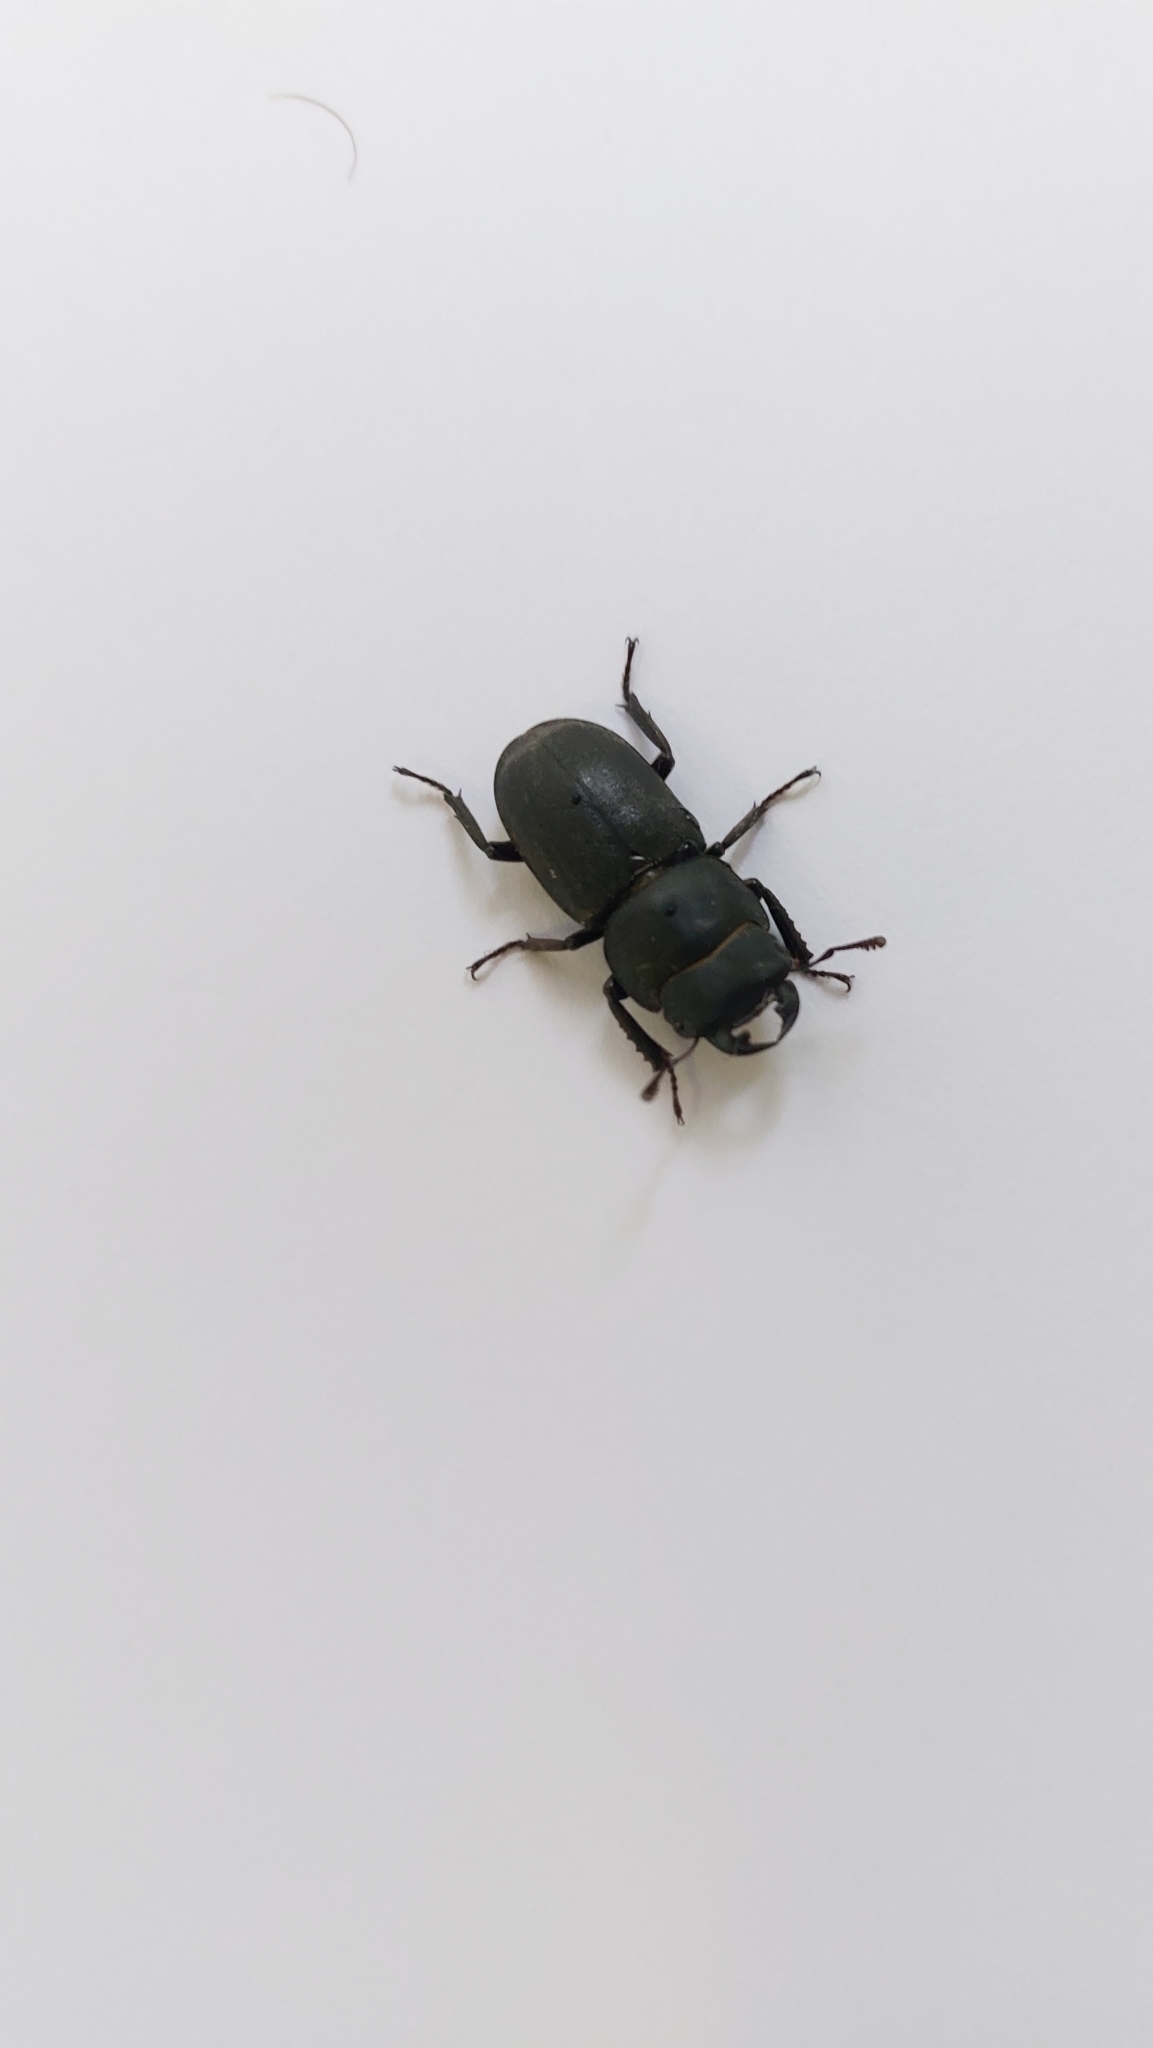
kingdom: Animalia
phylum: Arthropoda
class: Insecta
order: Coleoptera
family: Lucanidae
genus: Dorcus
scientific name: Dorcus parallelipipedus
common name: Lesser stag beetle
